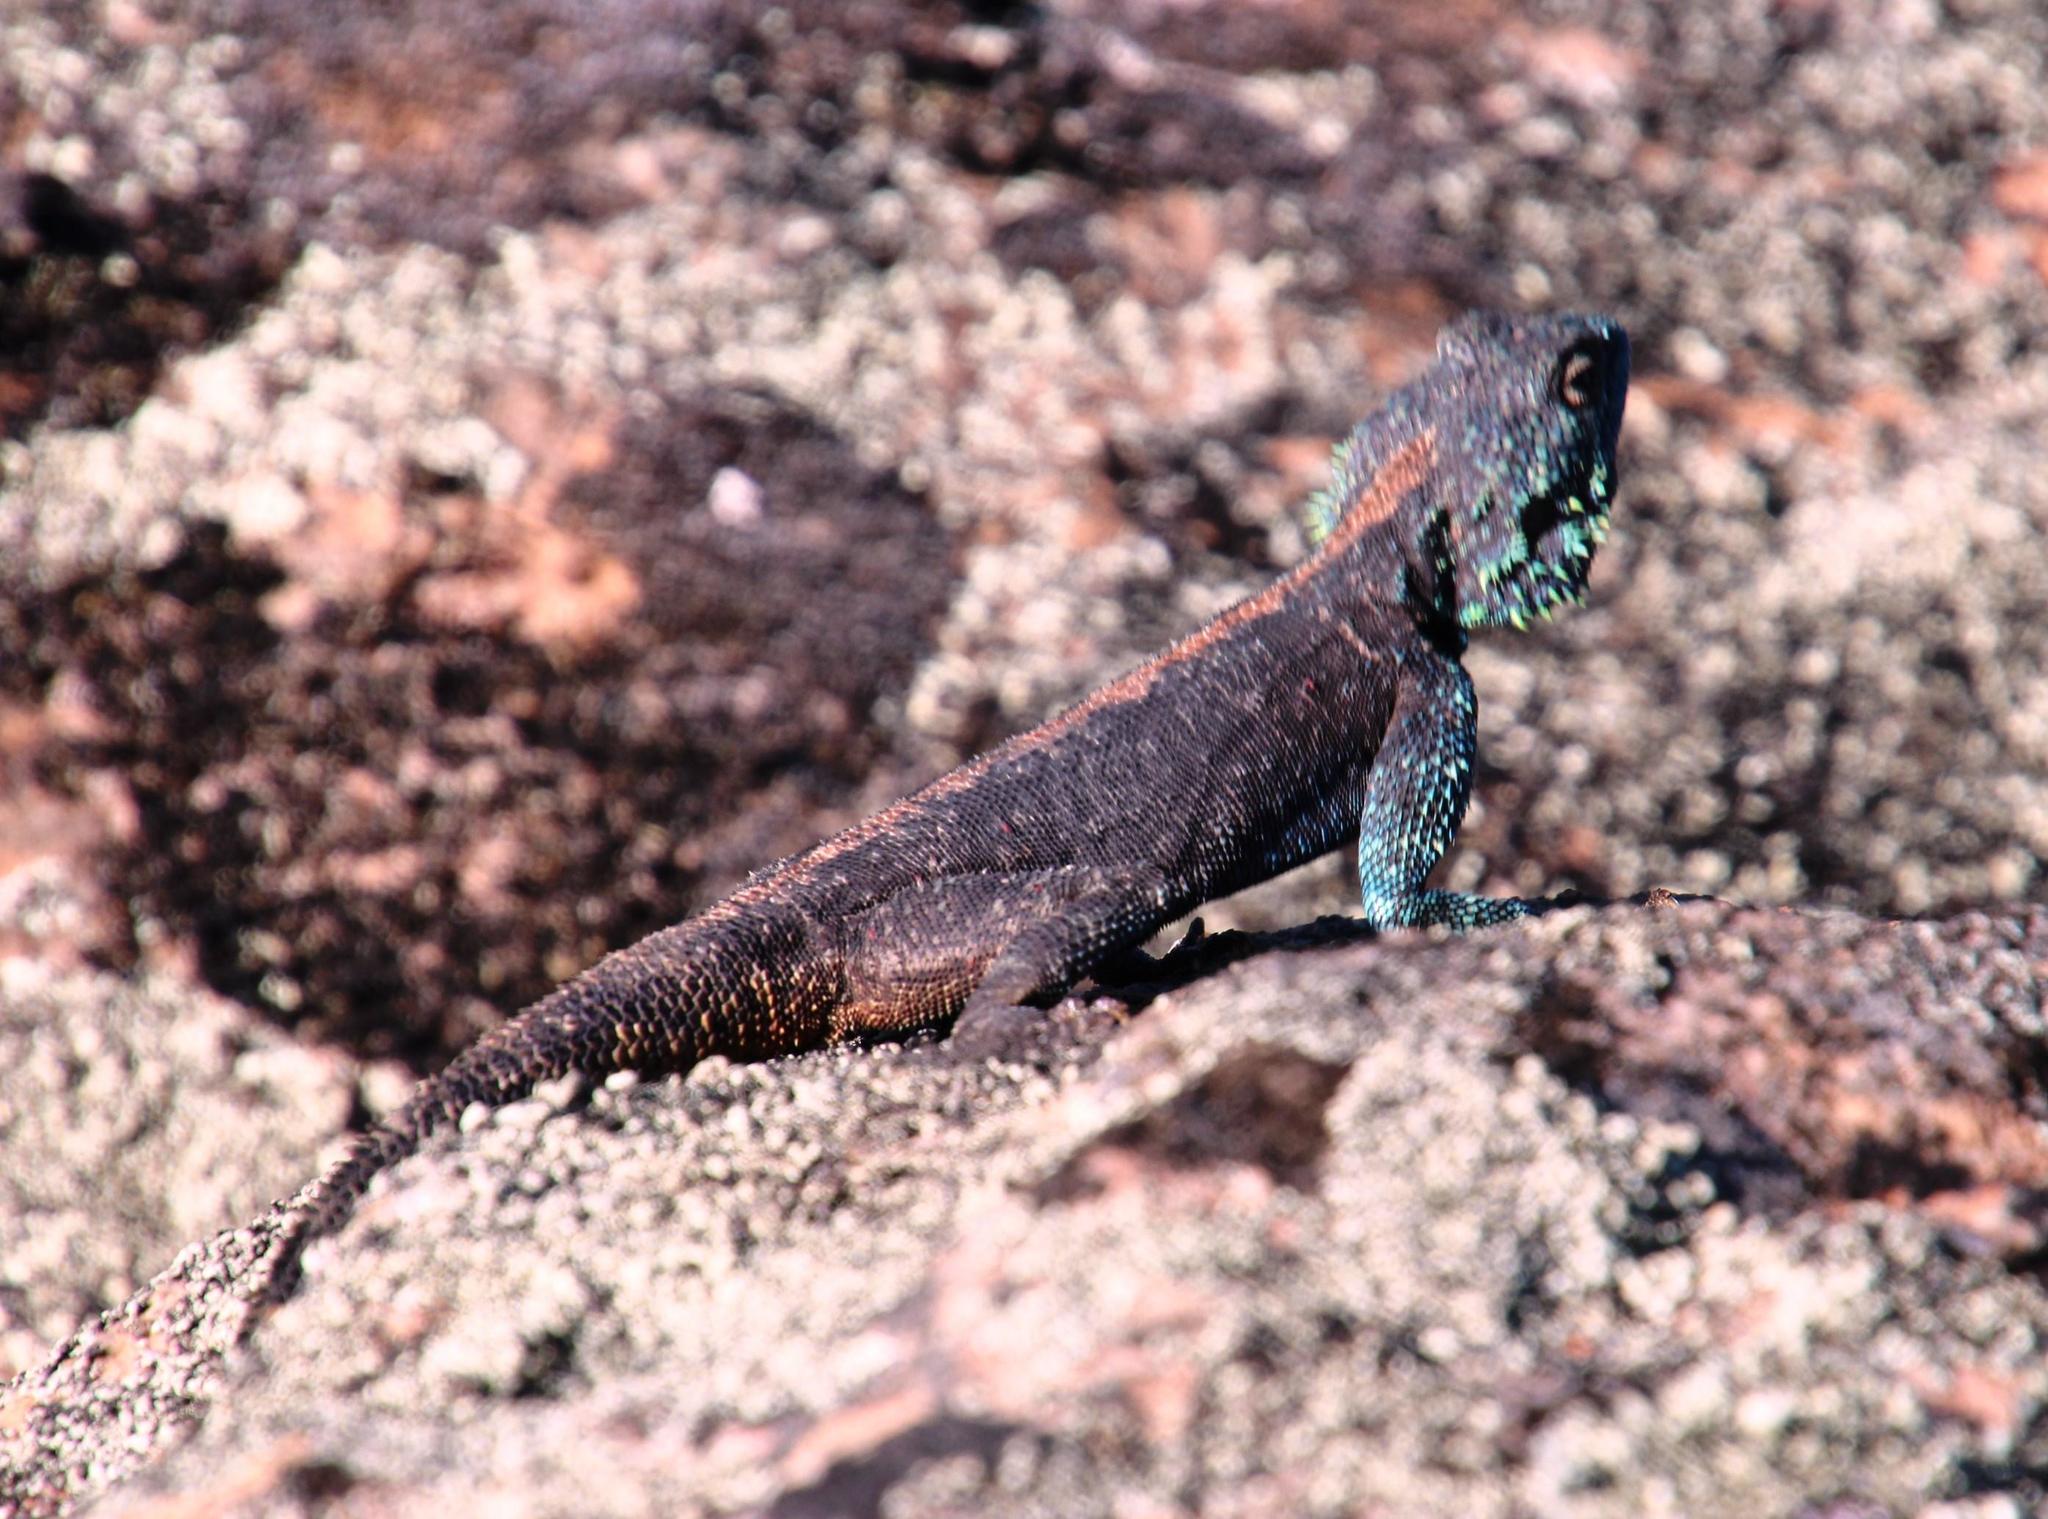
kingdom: Animalia
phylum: Chordata
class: Squamata
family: Agamidae
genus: Agama
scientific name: Agama atra
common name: Southern african rock agama
